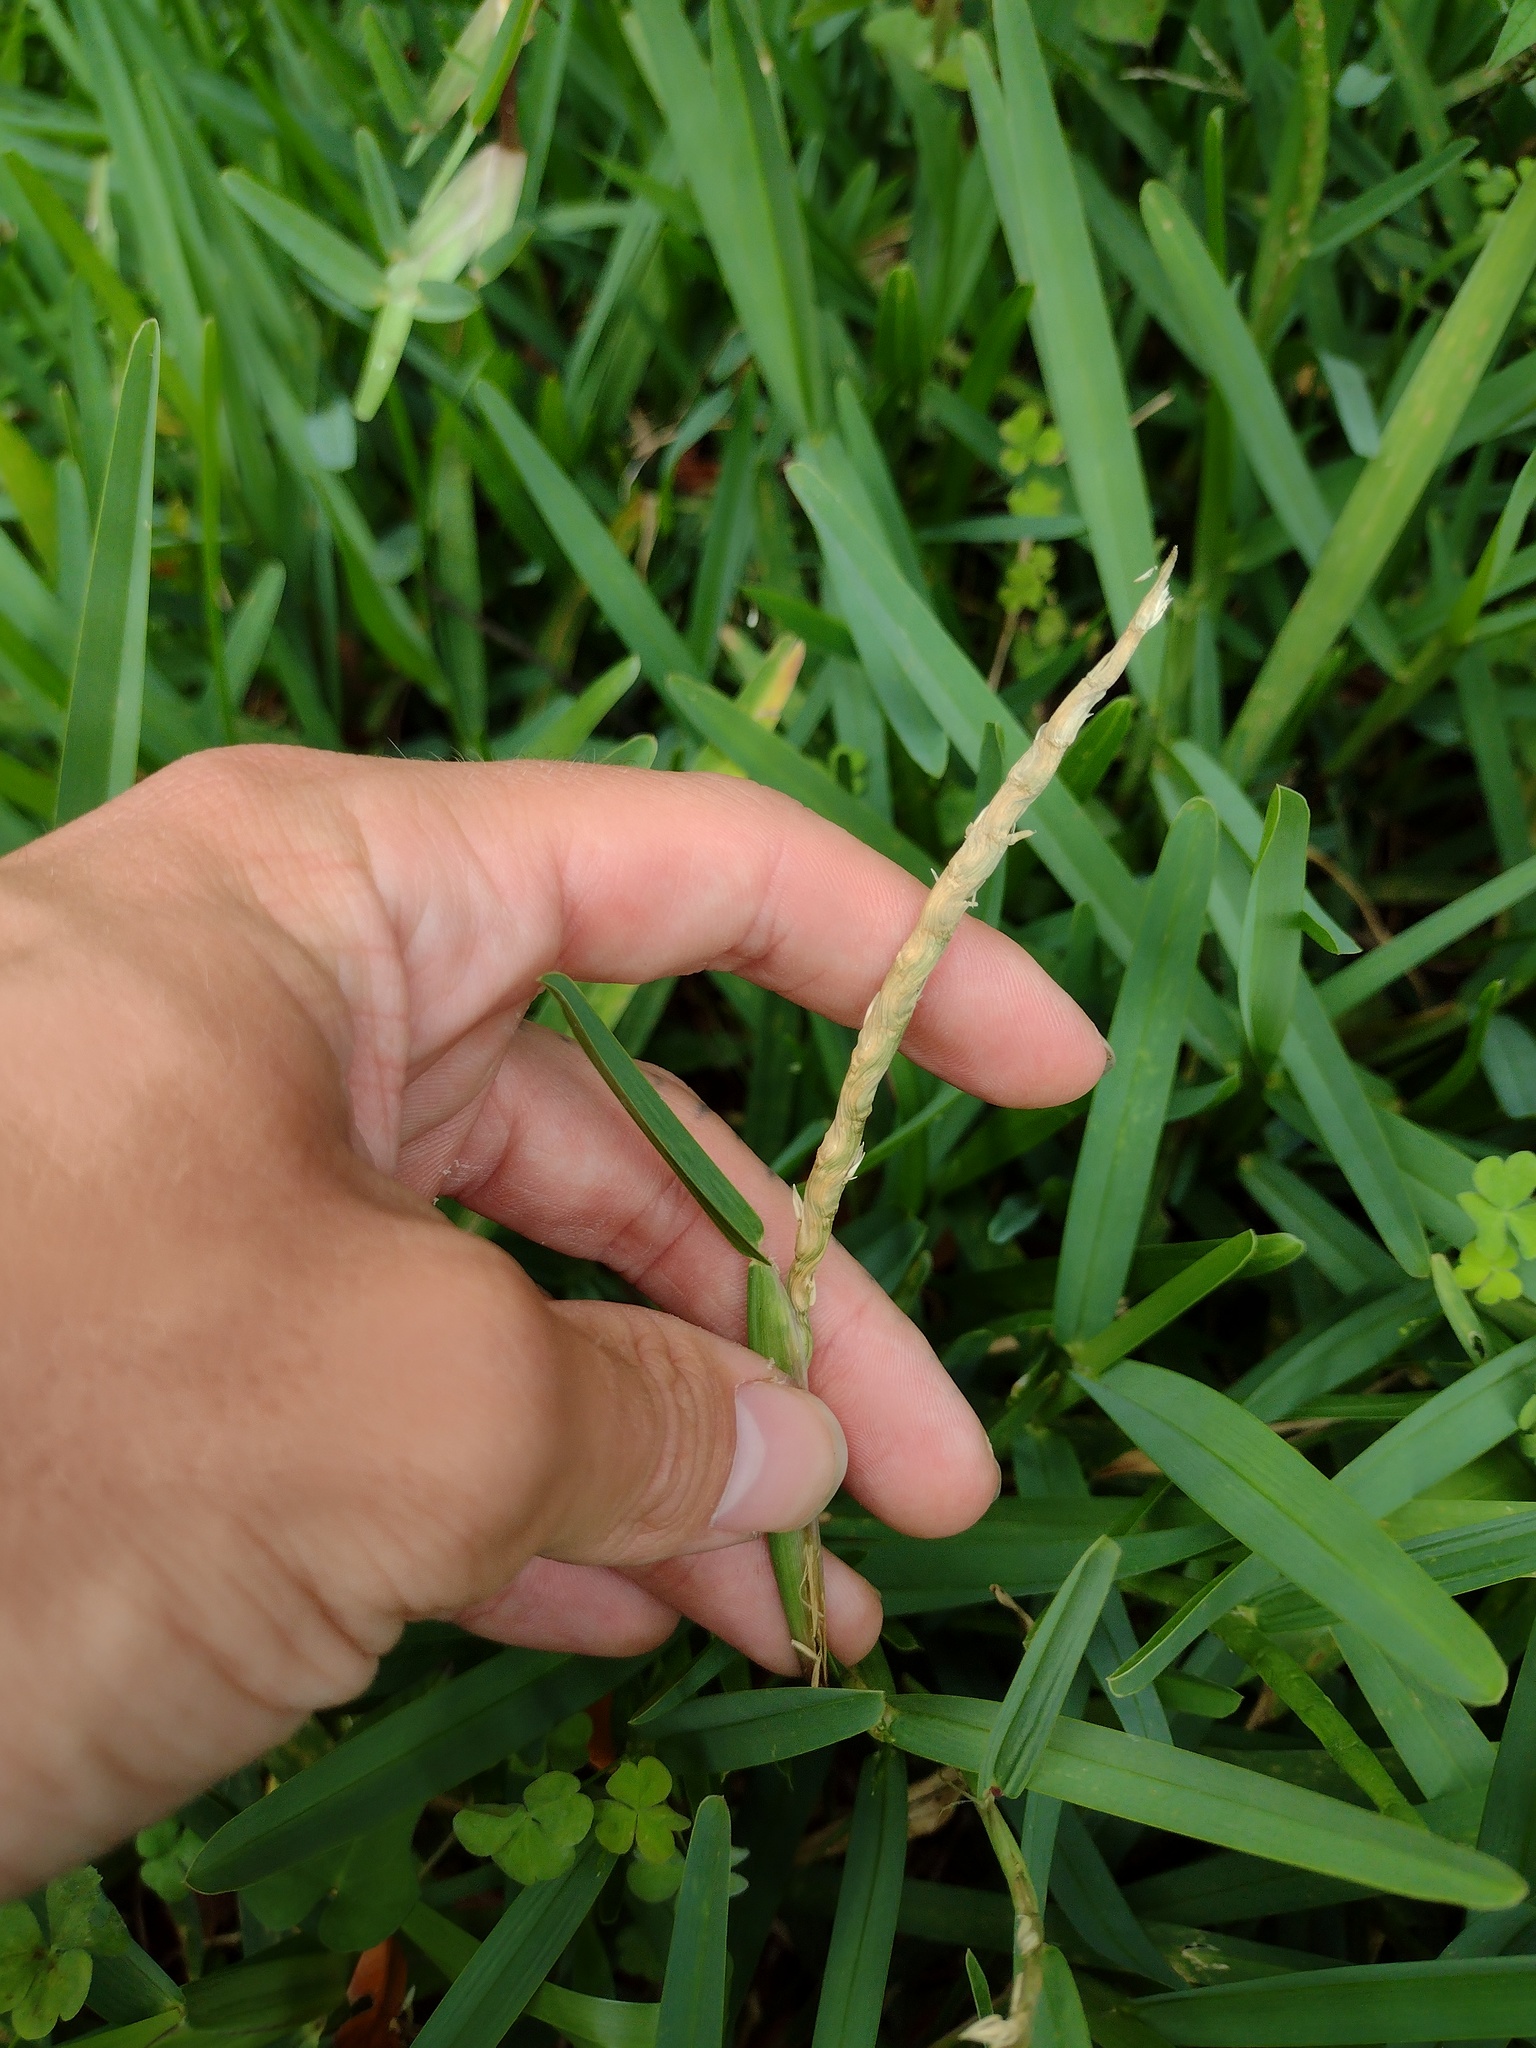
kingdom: Plantae
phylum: Tracheophyta
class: Liliopsida
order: Poales
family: Poaceae
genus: Stenotaphrum
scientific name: Stenotaphrum secundatum
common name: St. augustine grass
